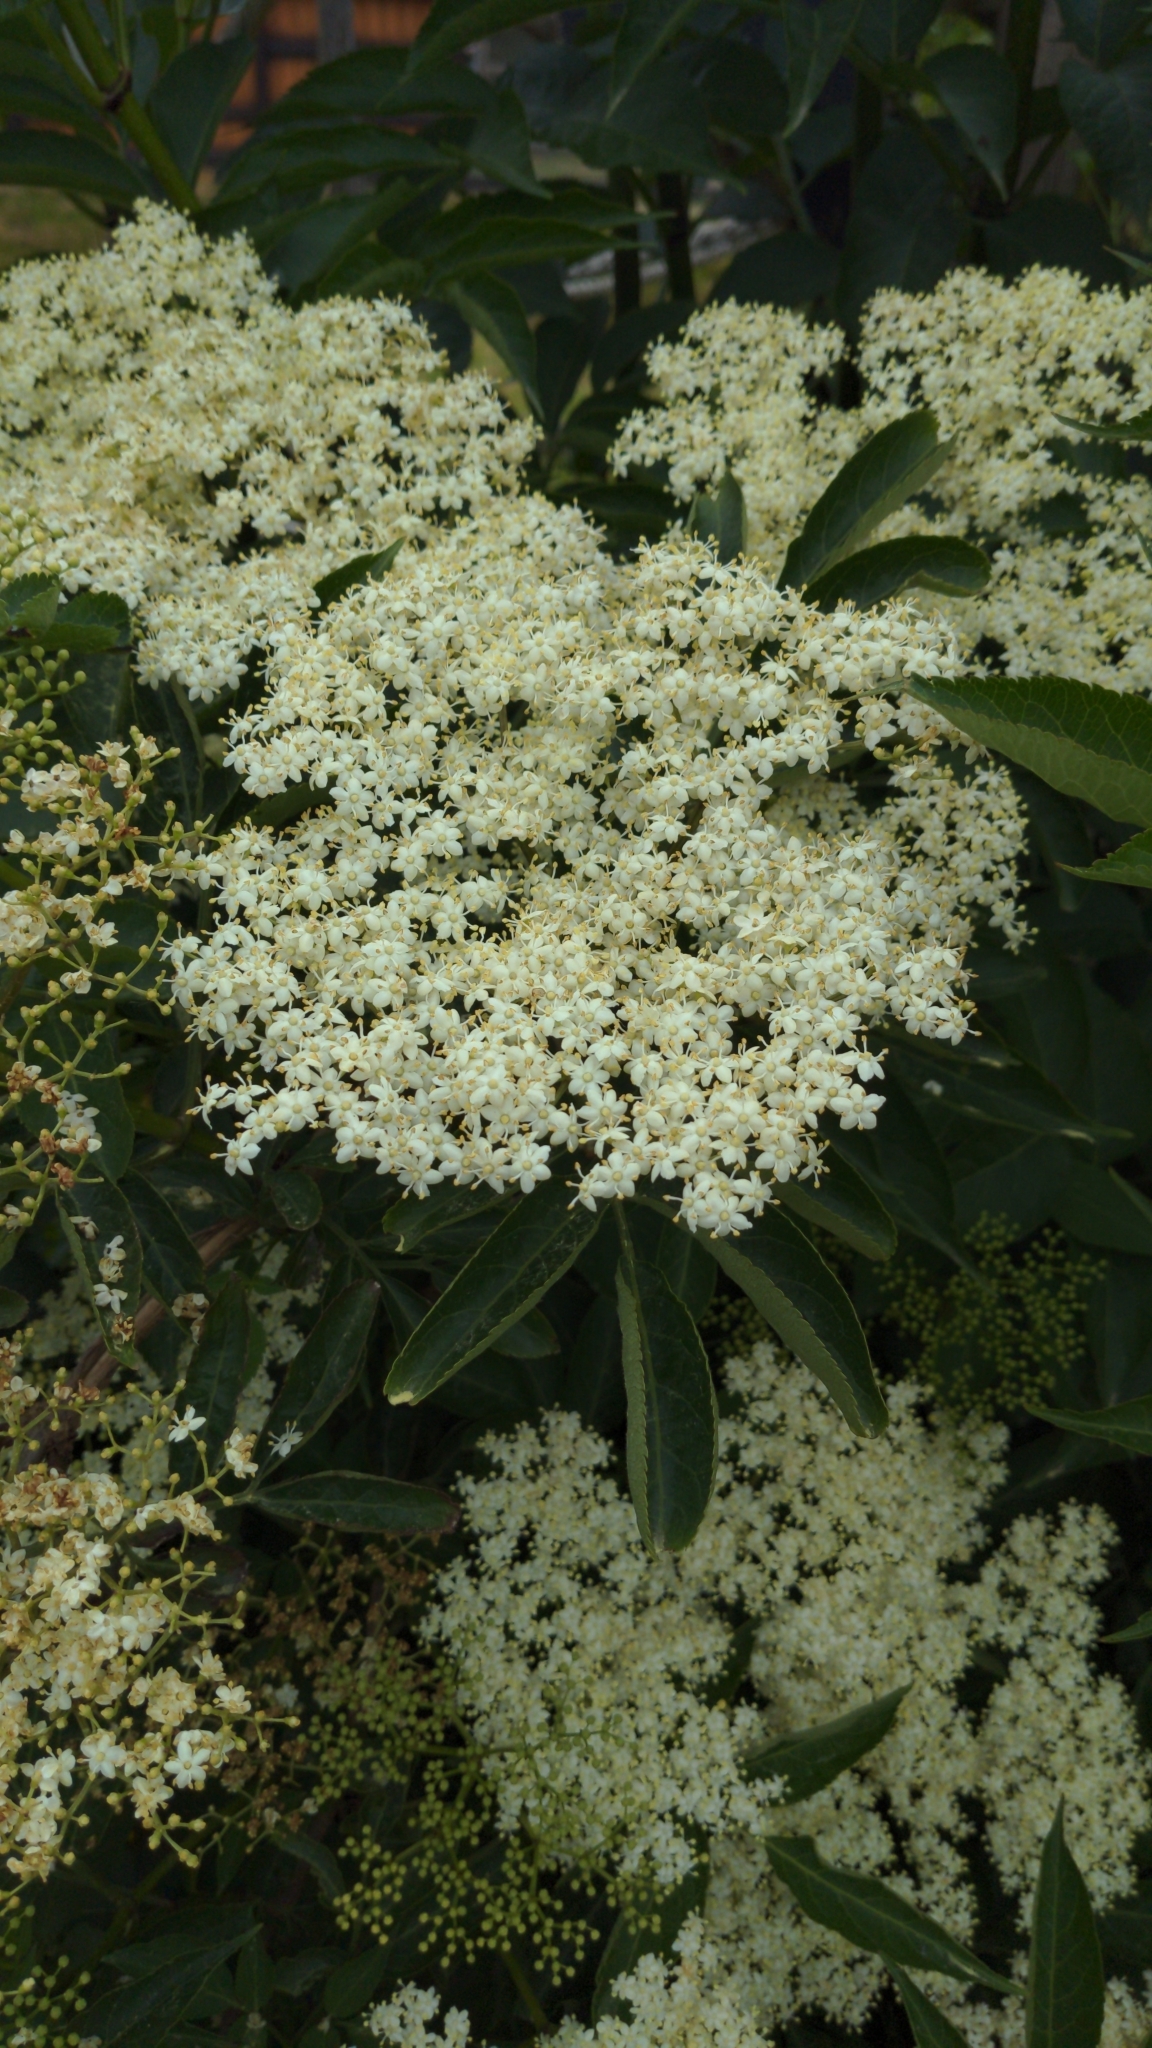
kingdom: Plantae
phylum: Tracheophyta
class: Magnoliopsida
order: Dipsacales
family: Viburnaceae
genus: Sambucus
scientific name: Sambucus nigra
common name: Elder
